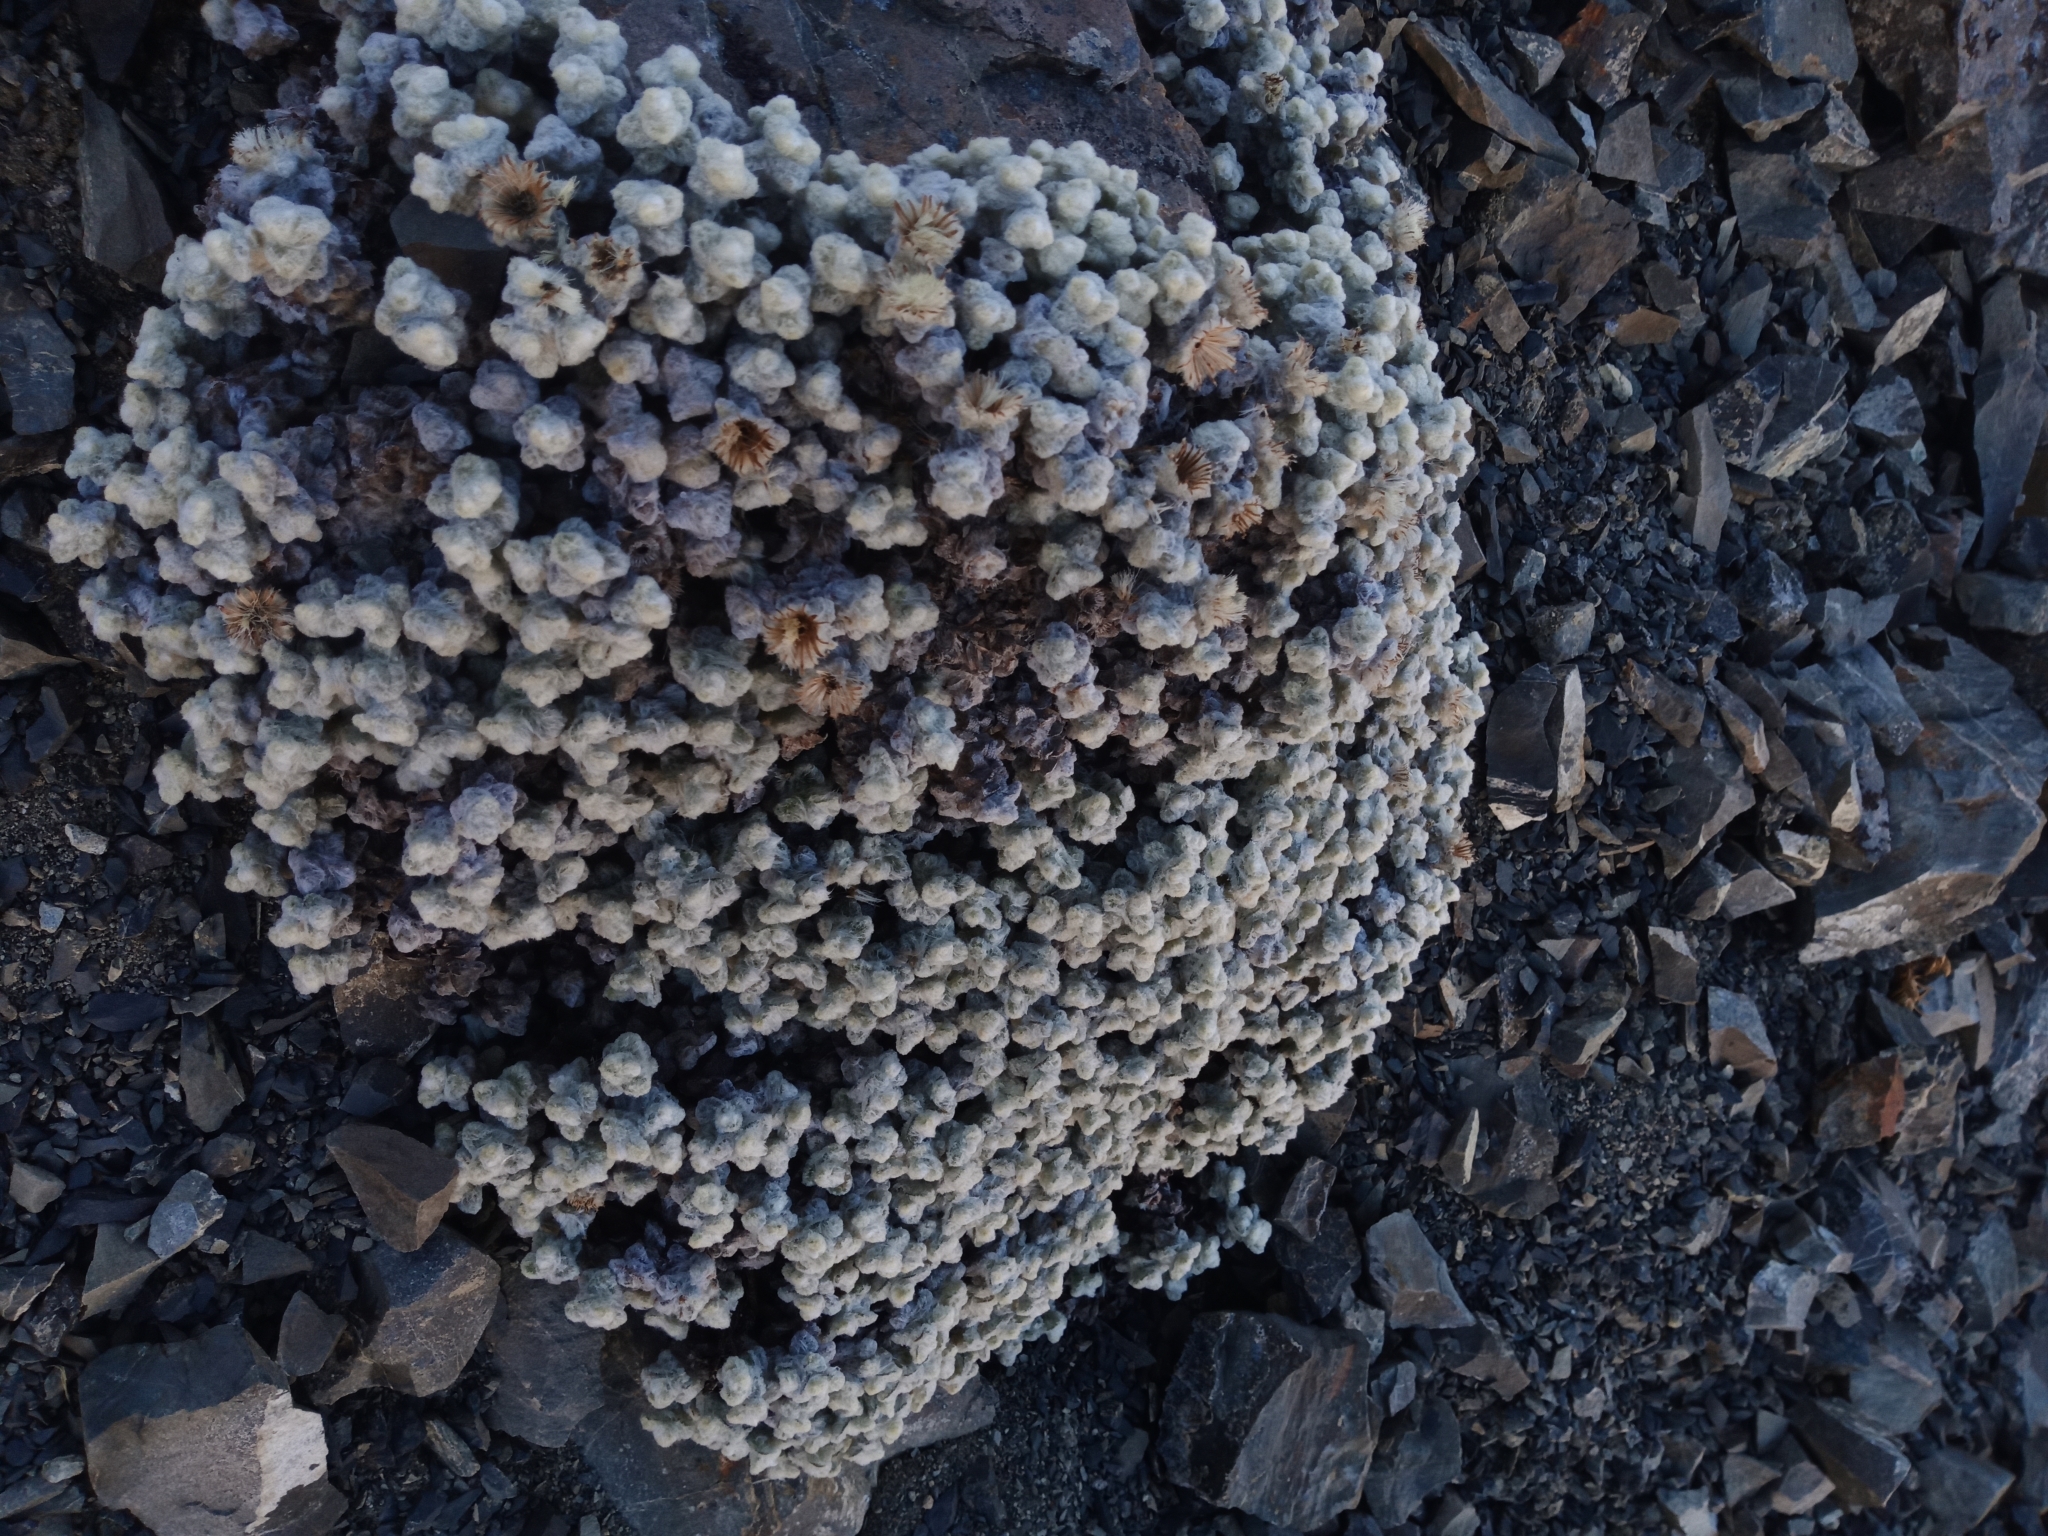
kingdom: Plantae
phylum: Tracheophyta
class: Magnoliopsida
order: Asterales
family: Asteraceae
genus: Haastia
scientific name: Haastia recurva
